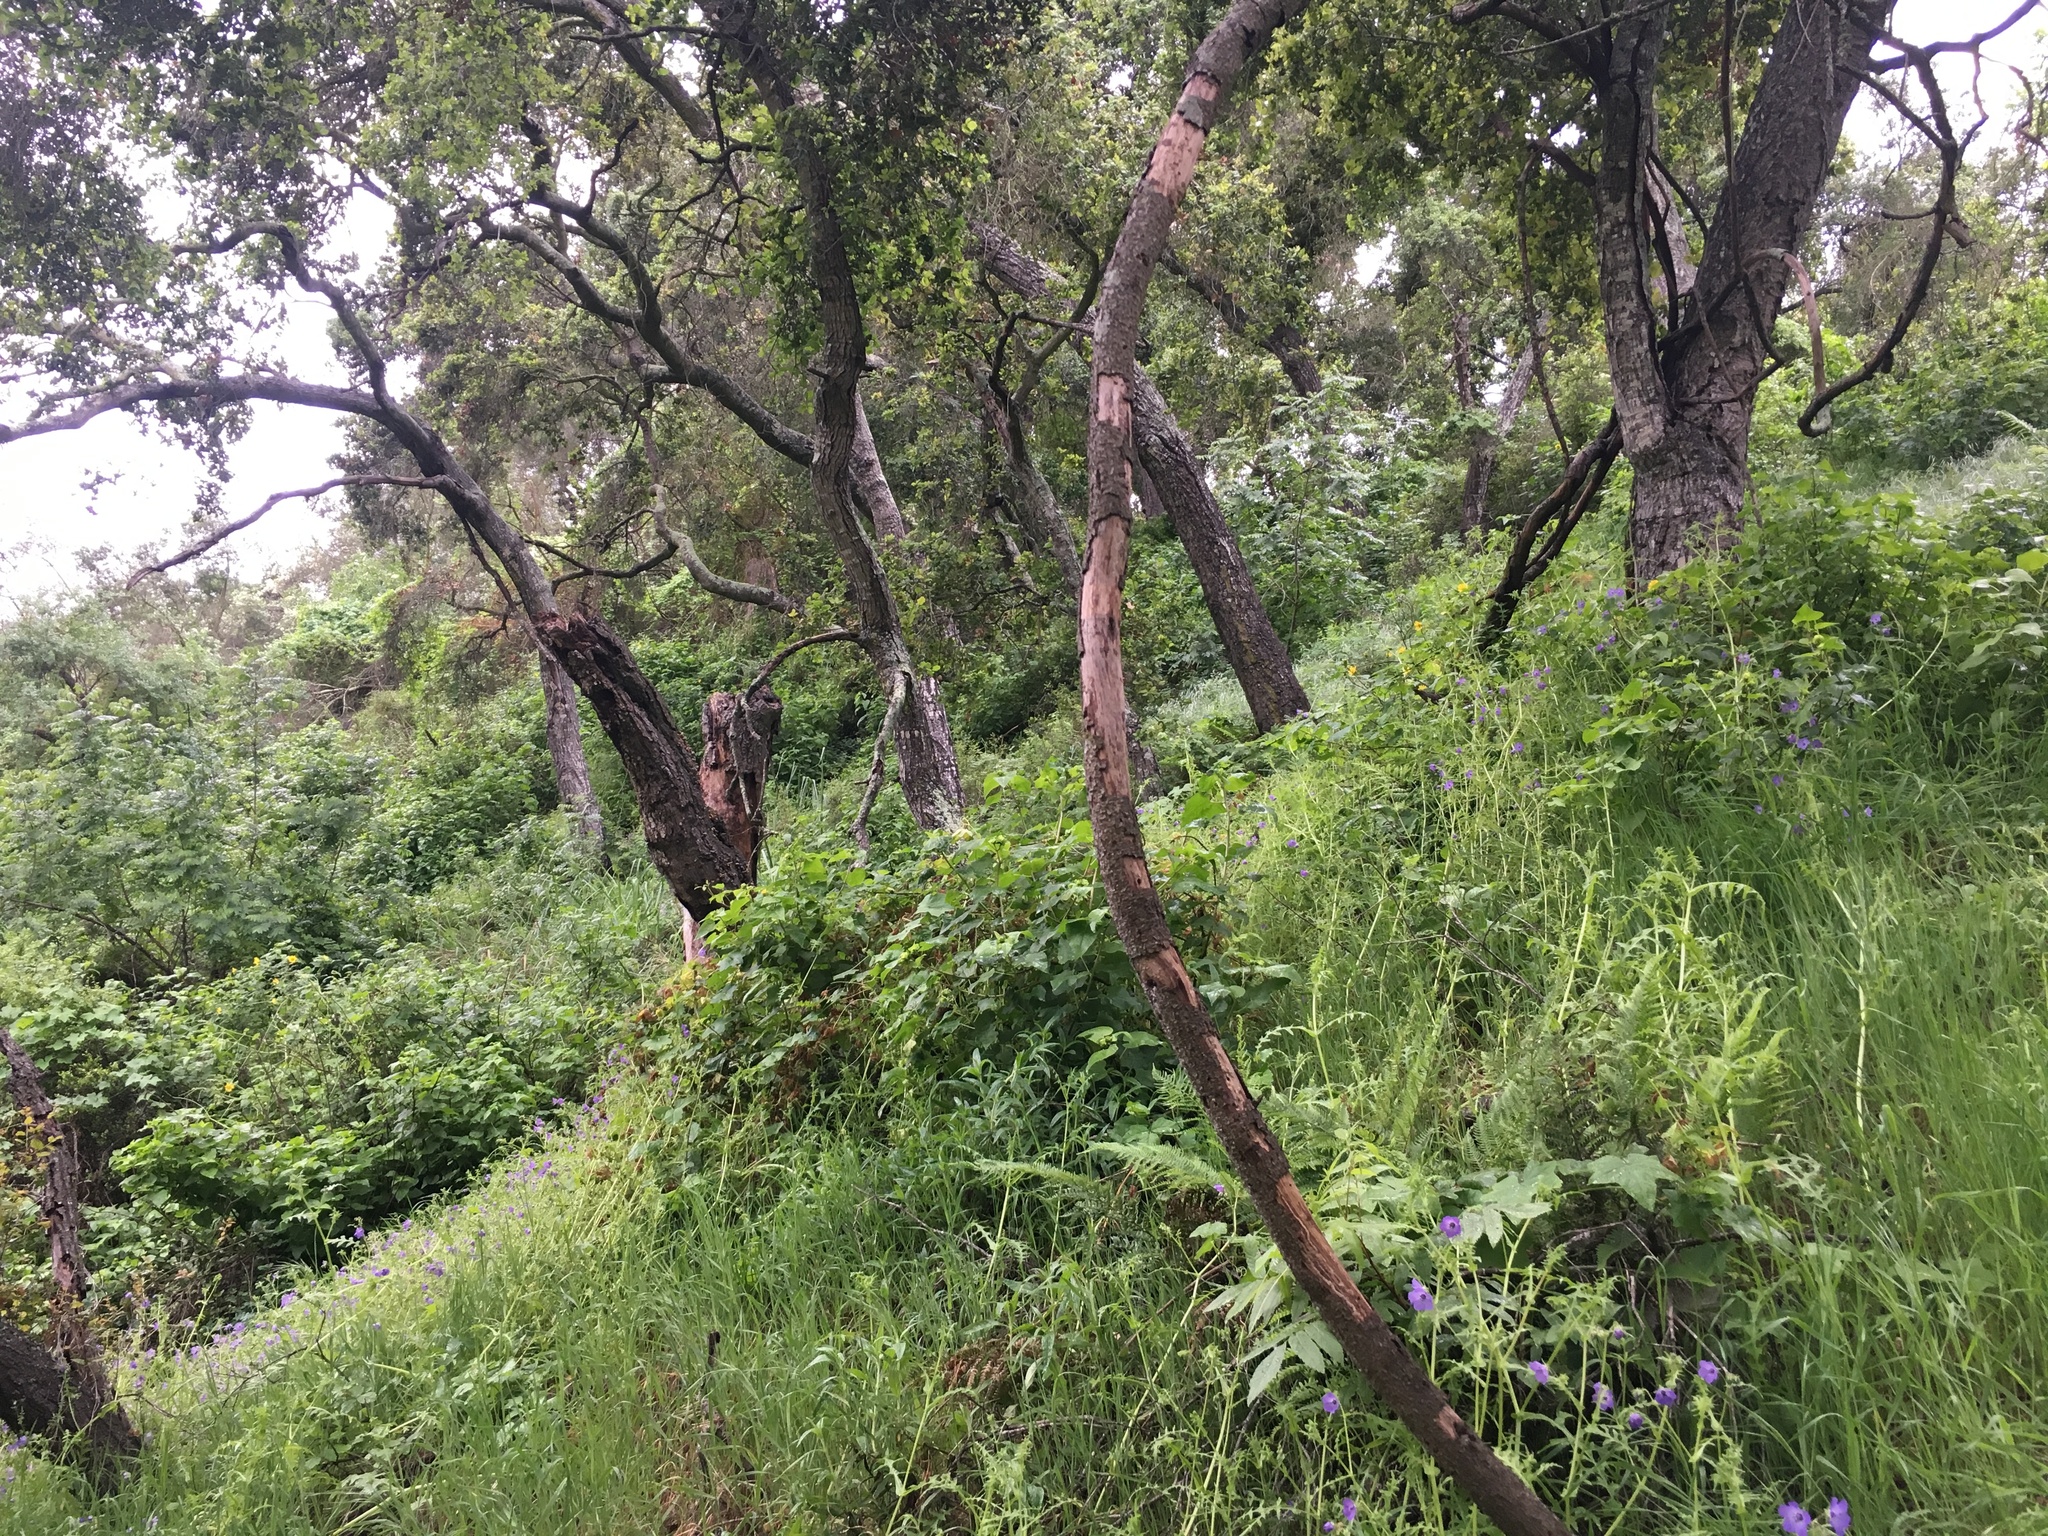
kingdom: Plantae
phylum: Tracheophyta
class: Magnoliopsida
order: Fagales
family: Fagaceae
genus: Quercus
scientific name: Quercus agrifolia
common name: California live oak
